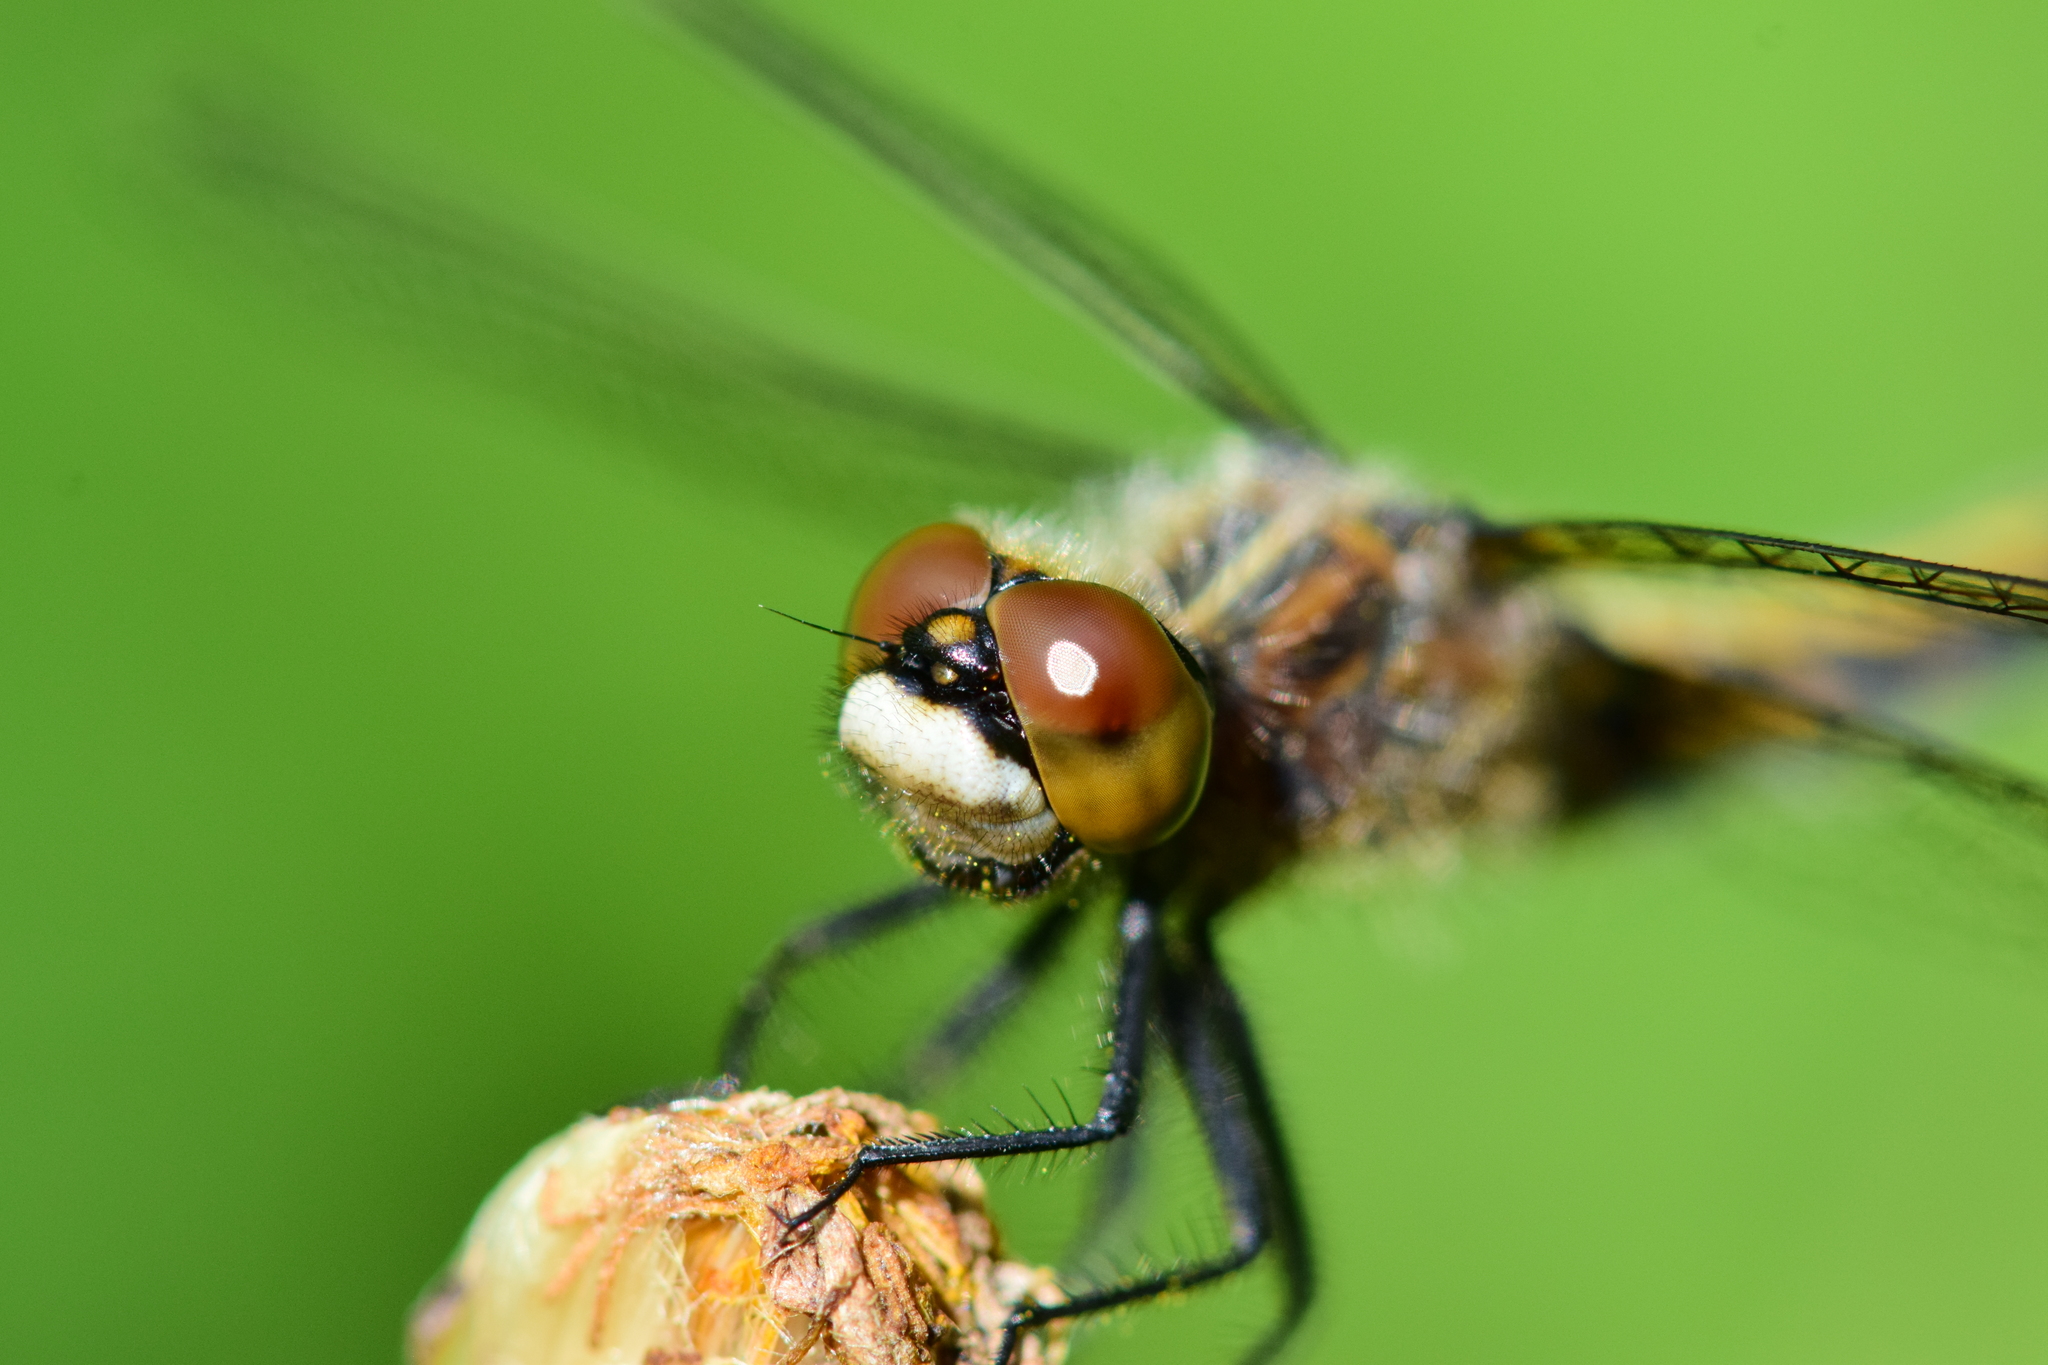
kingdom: Animalia
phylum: Arthropoda
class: Insecta
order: Odonata
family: Libellulidae
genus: Leucorrhinia
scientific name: Leucorrhinia intacta
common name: Dot-tailed whiteface
